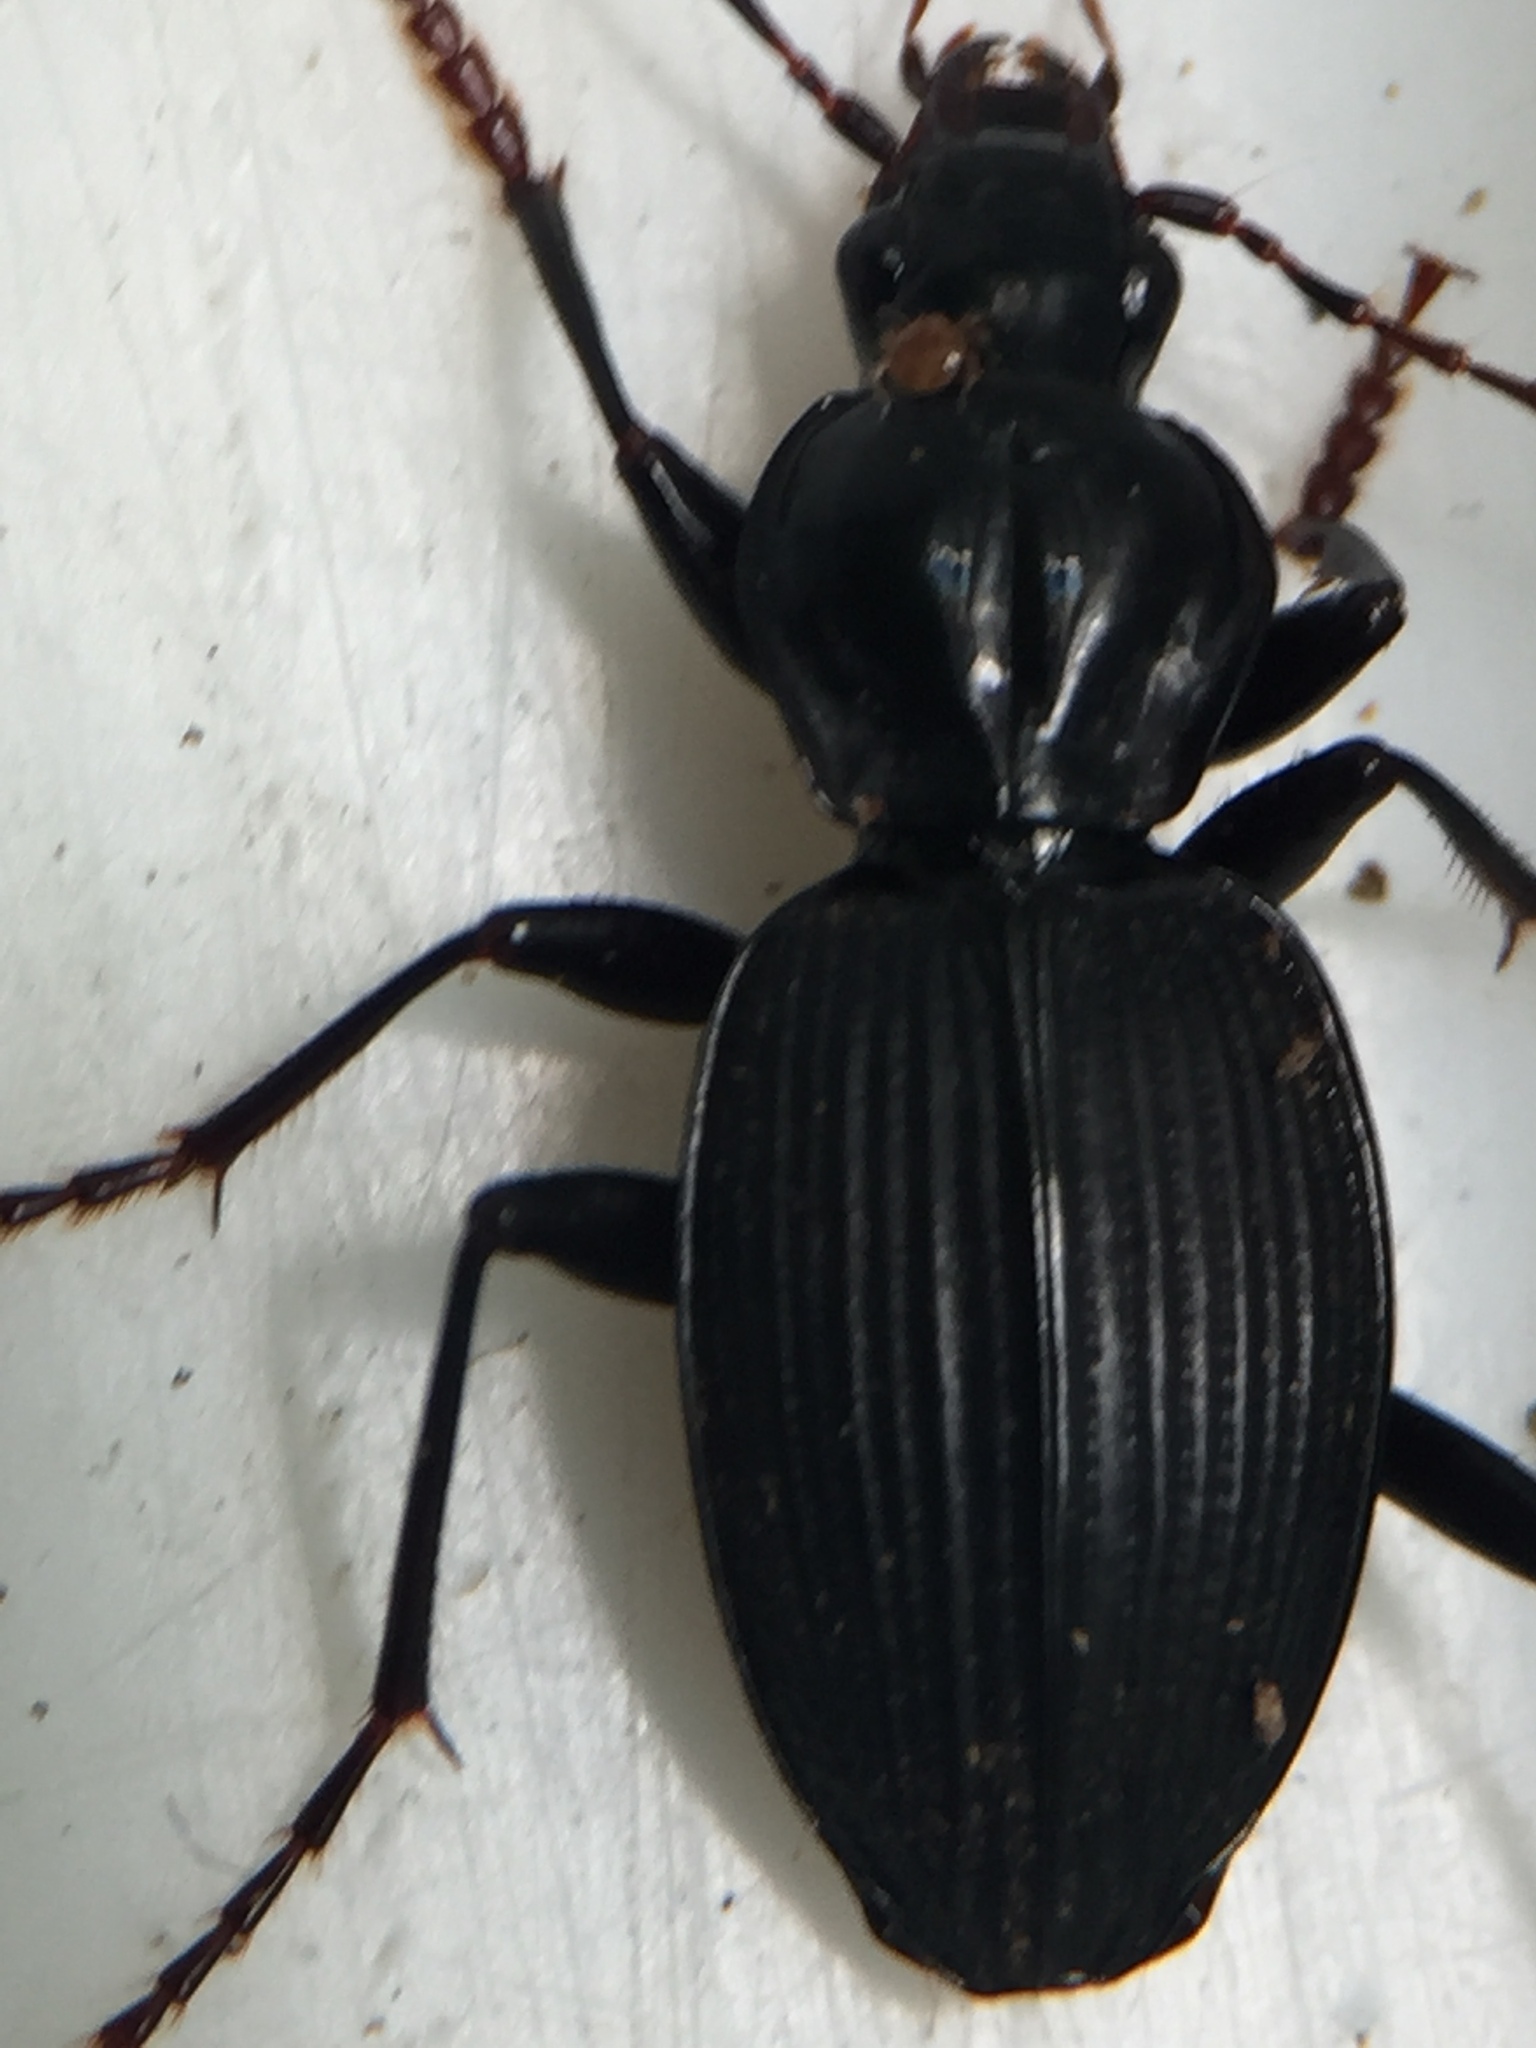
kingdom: Animalia
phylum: Arthropoda
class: Insecta
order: Coleoptera
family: Carabidae
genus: Kupeplatynus
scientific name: Kupeplatynus lucifugus
